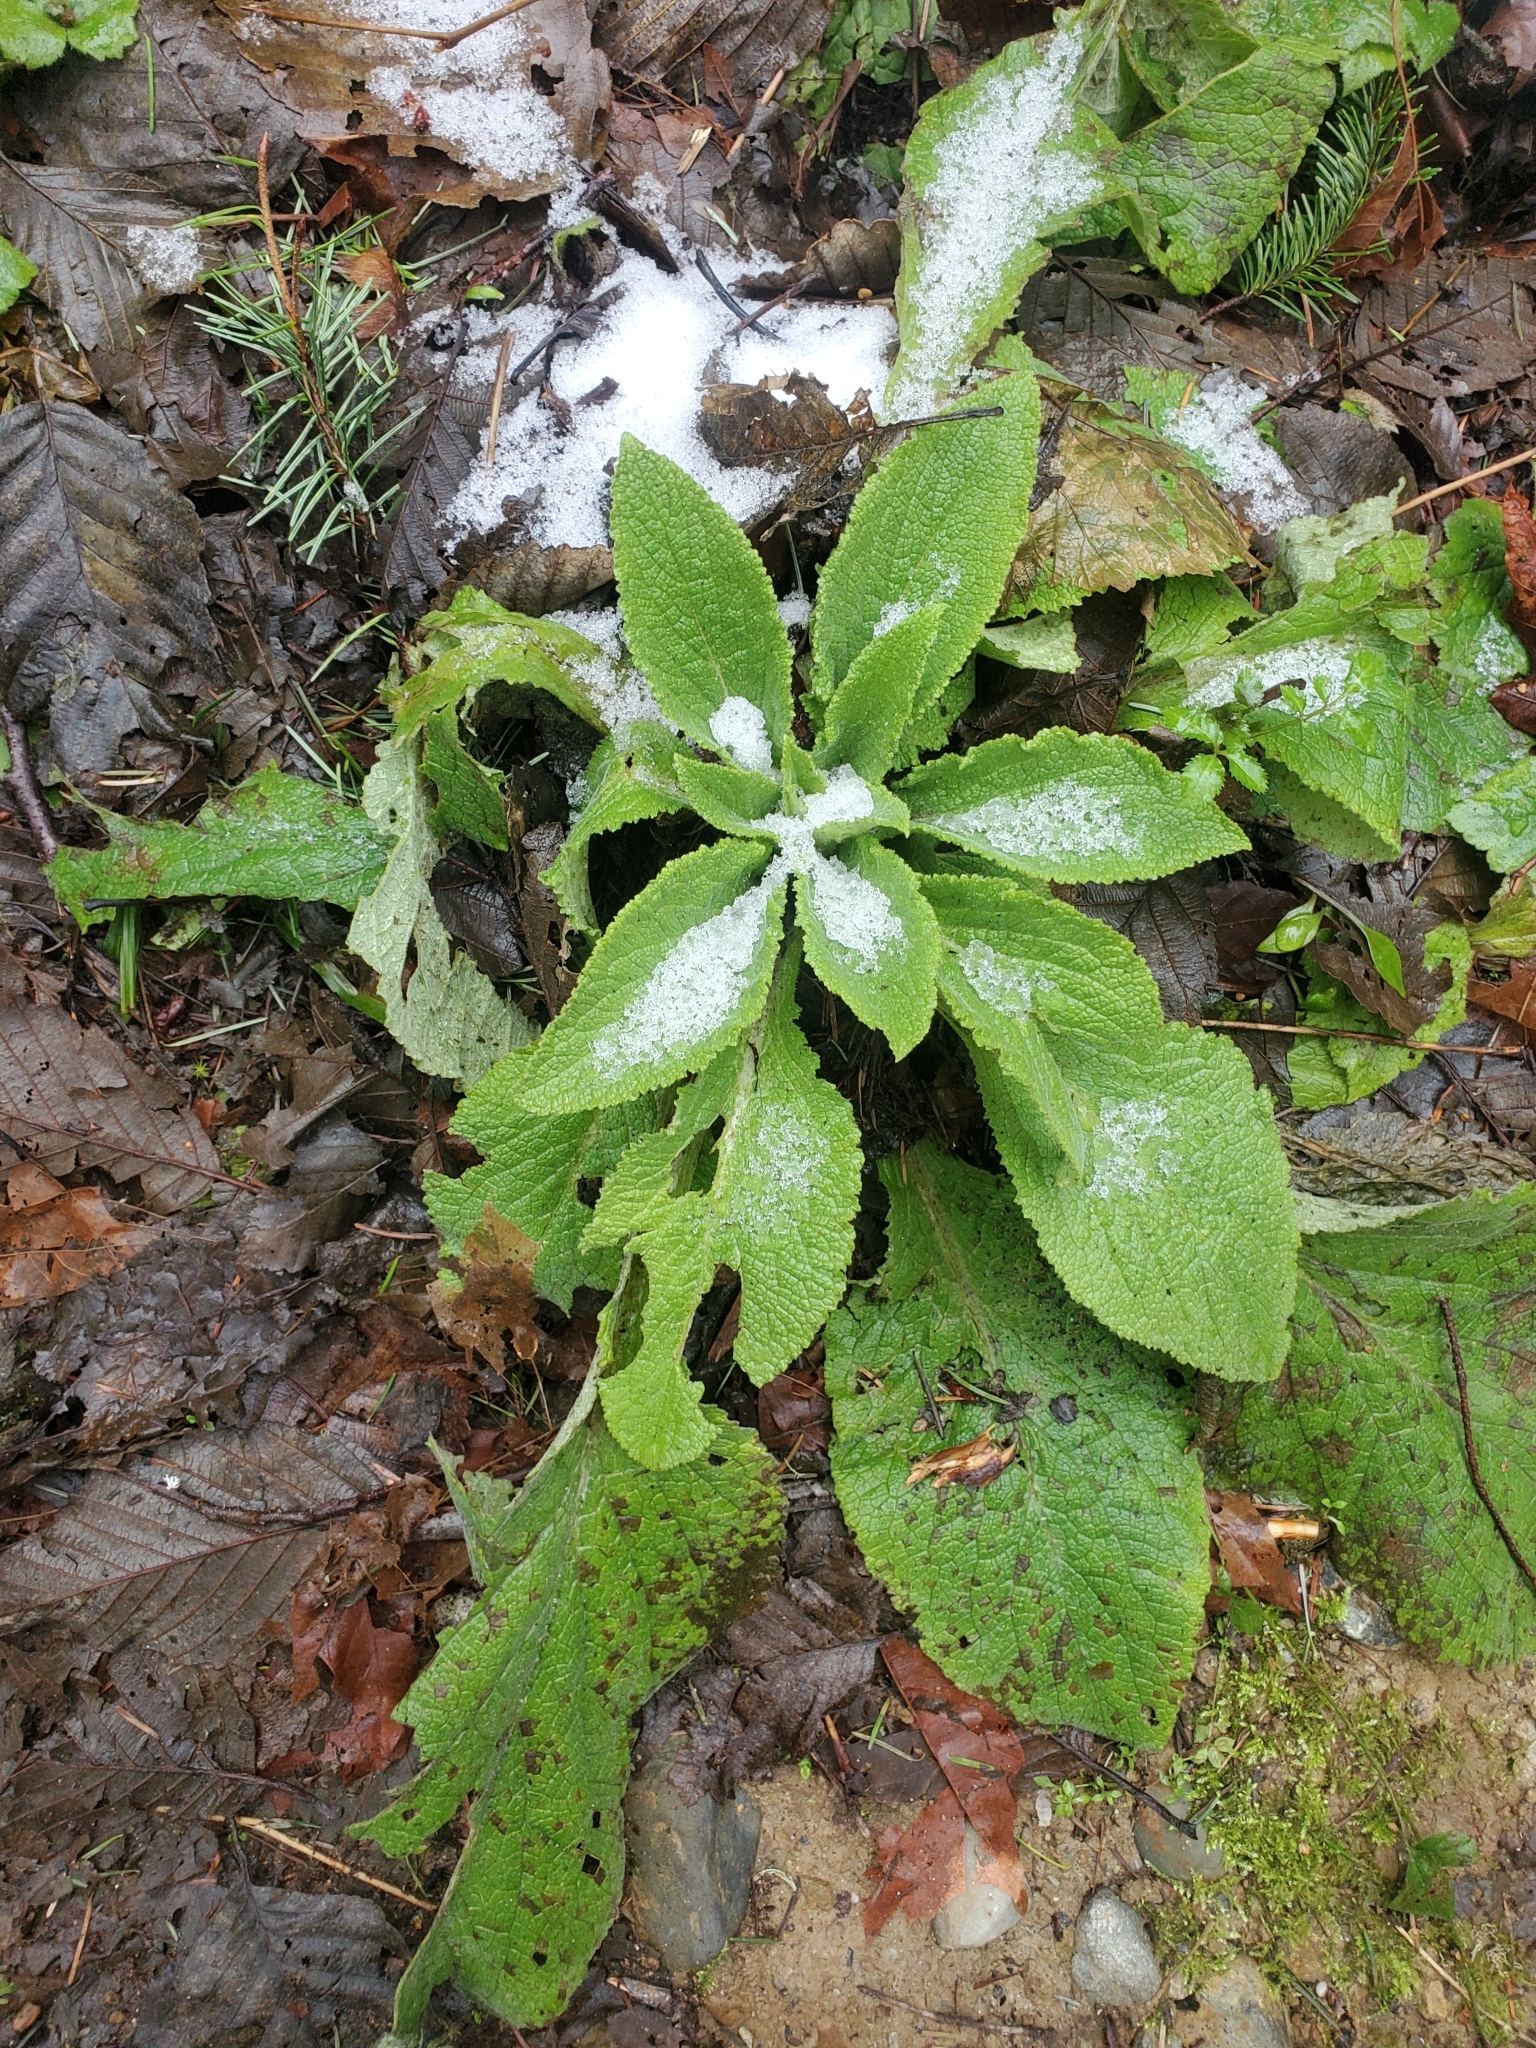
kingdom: Plantae
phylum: Tracheophyta
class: Magnoliopsida
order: Lamiales
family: Plantaginaceae
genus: Digitalis
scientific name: Digitalis purpurea
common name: Foxglove
